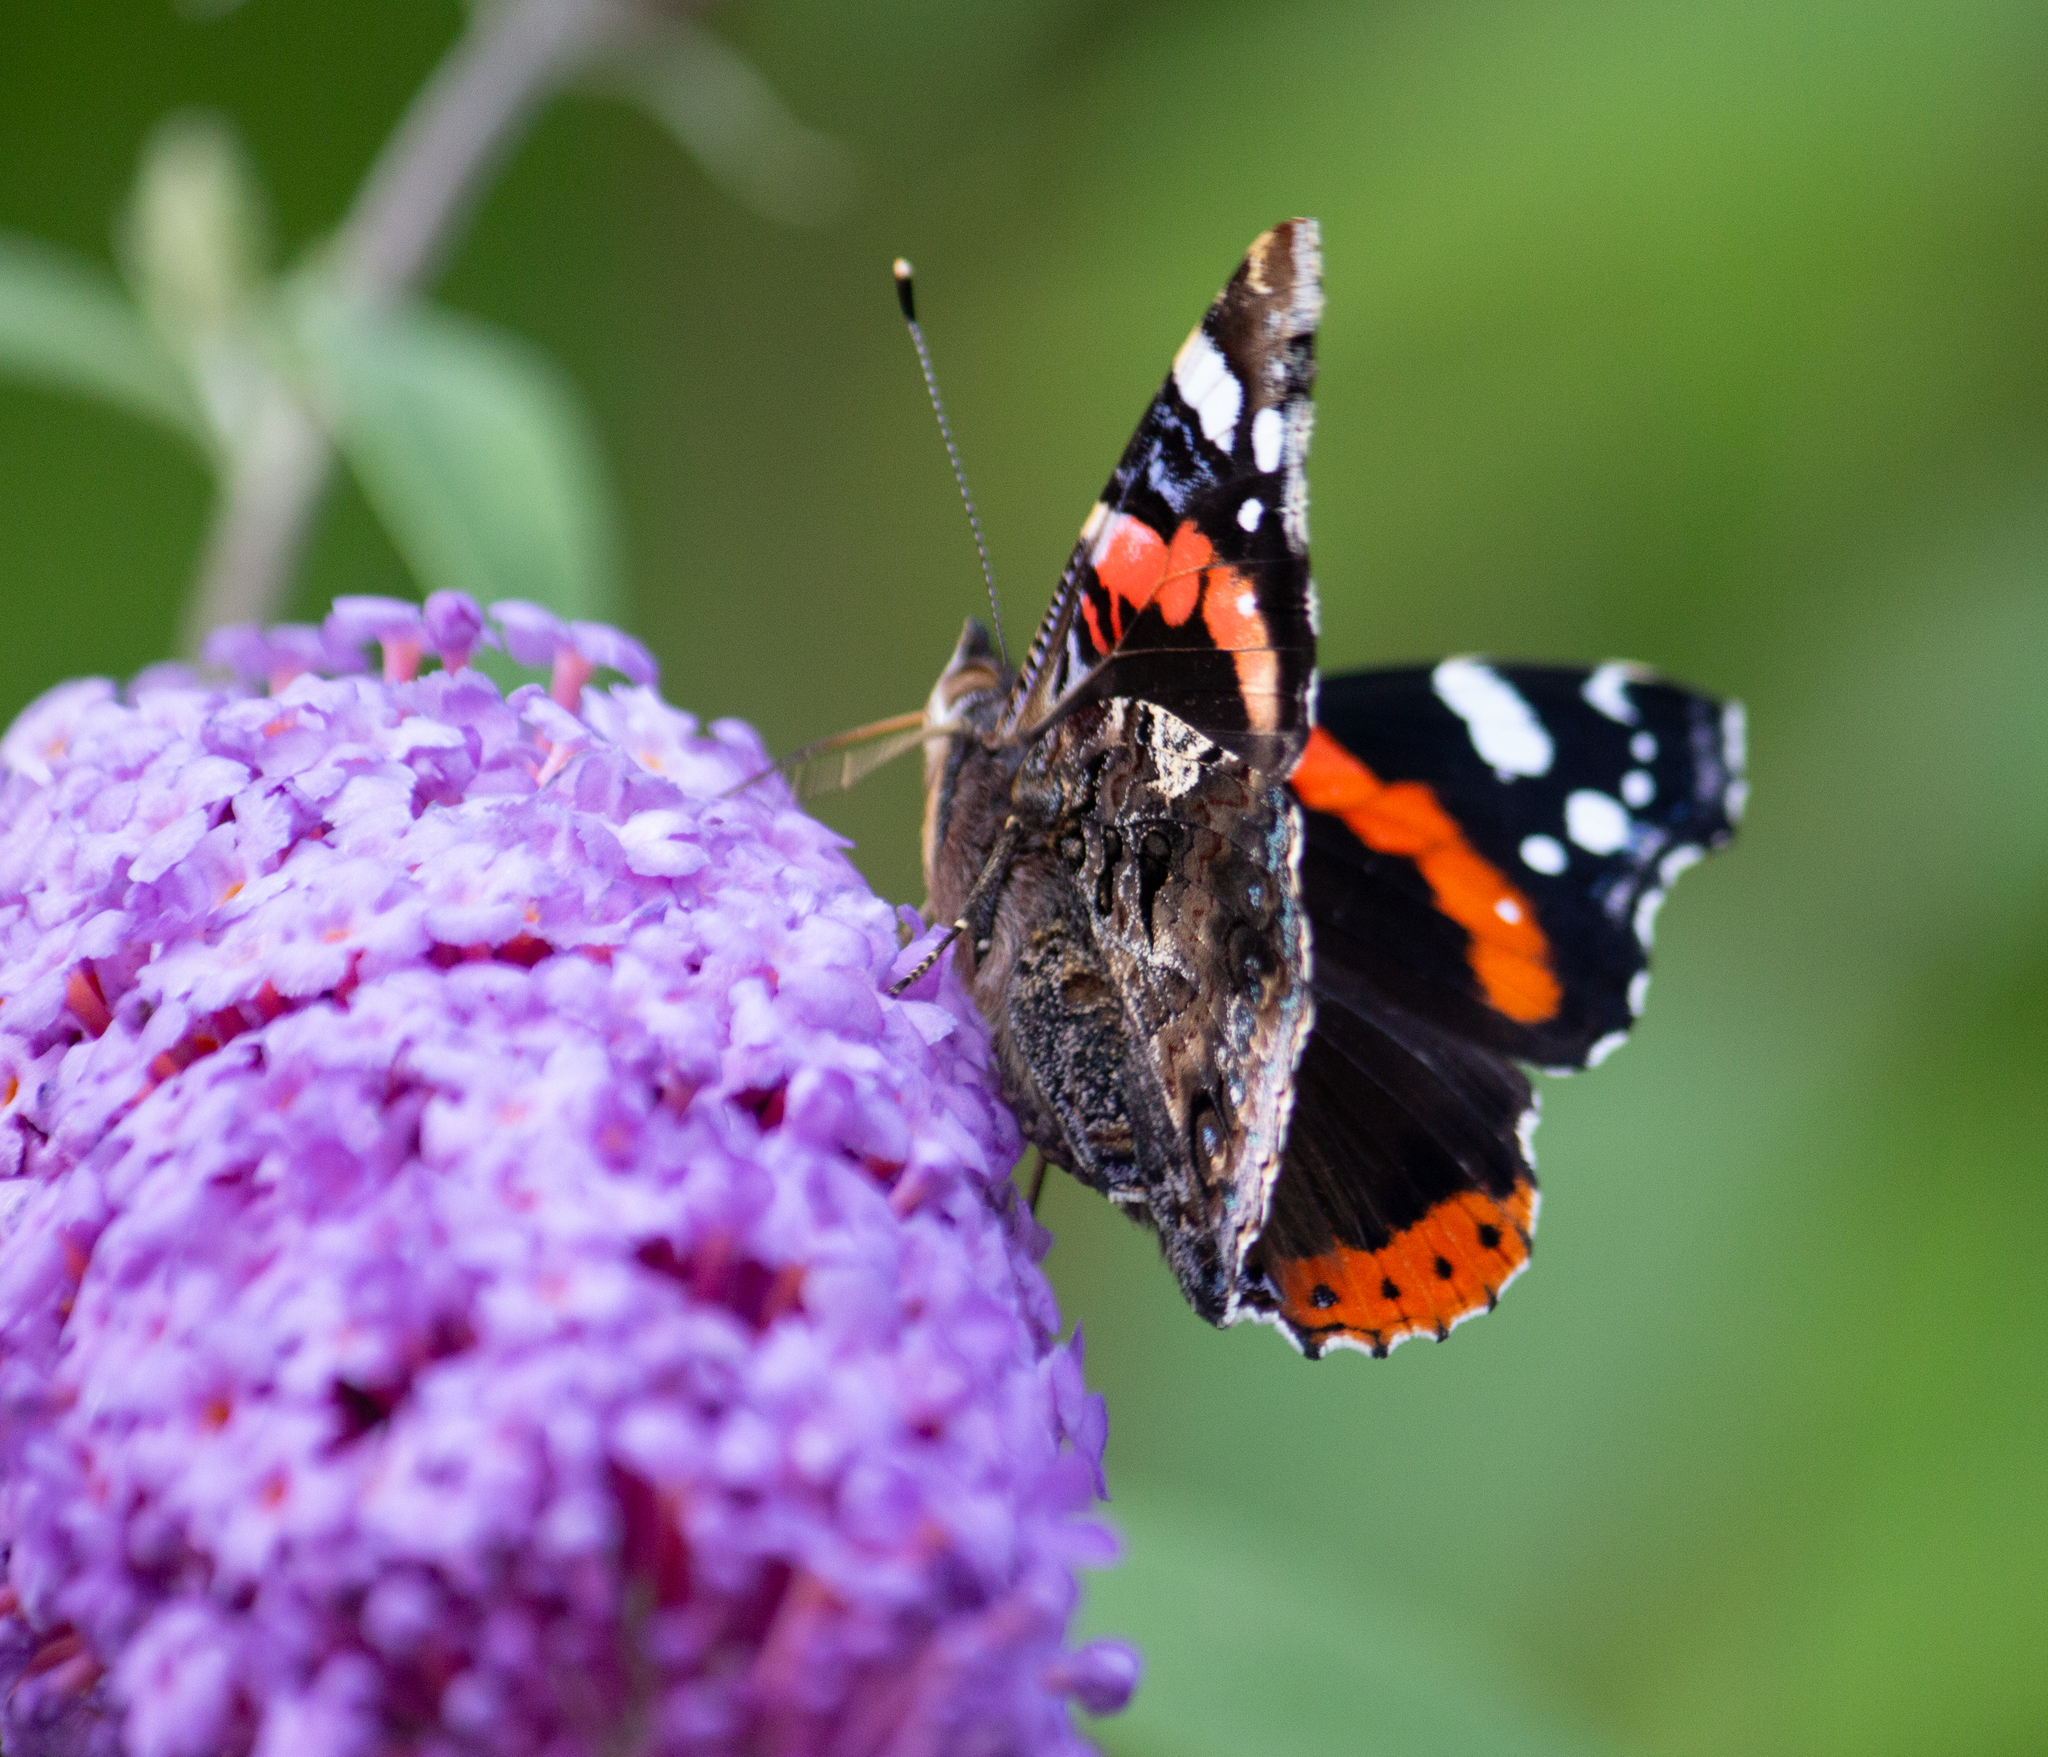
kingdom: Animalia
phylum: Arthropoda
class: Insecta
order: Lepidoptera
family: Nymphalidae
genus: Vanessa
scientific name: Vanessa atalanta
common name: Red admiral
